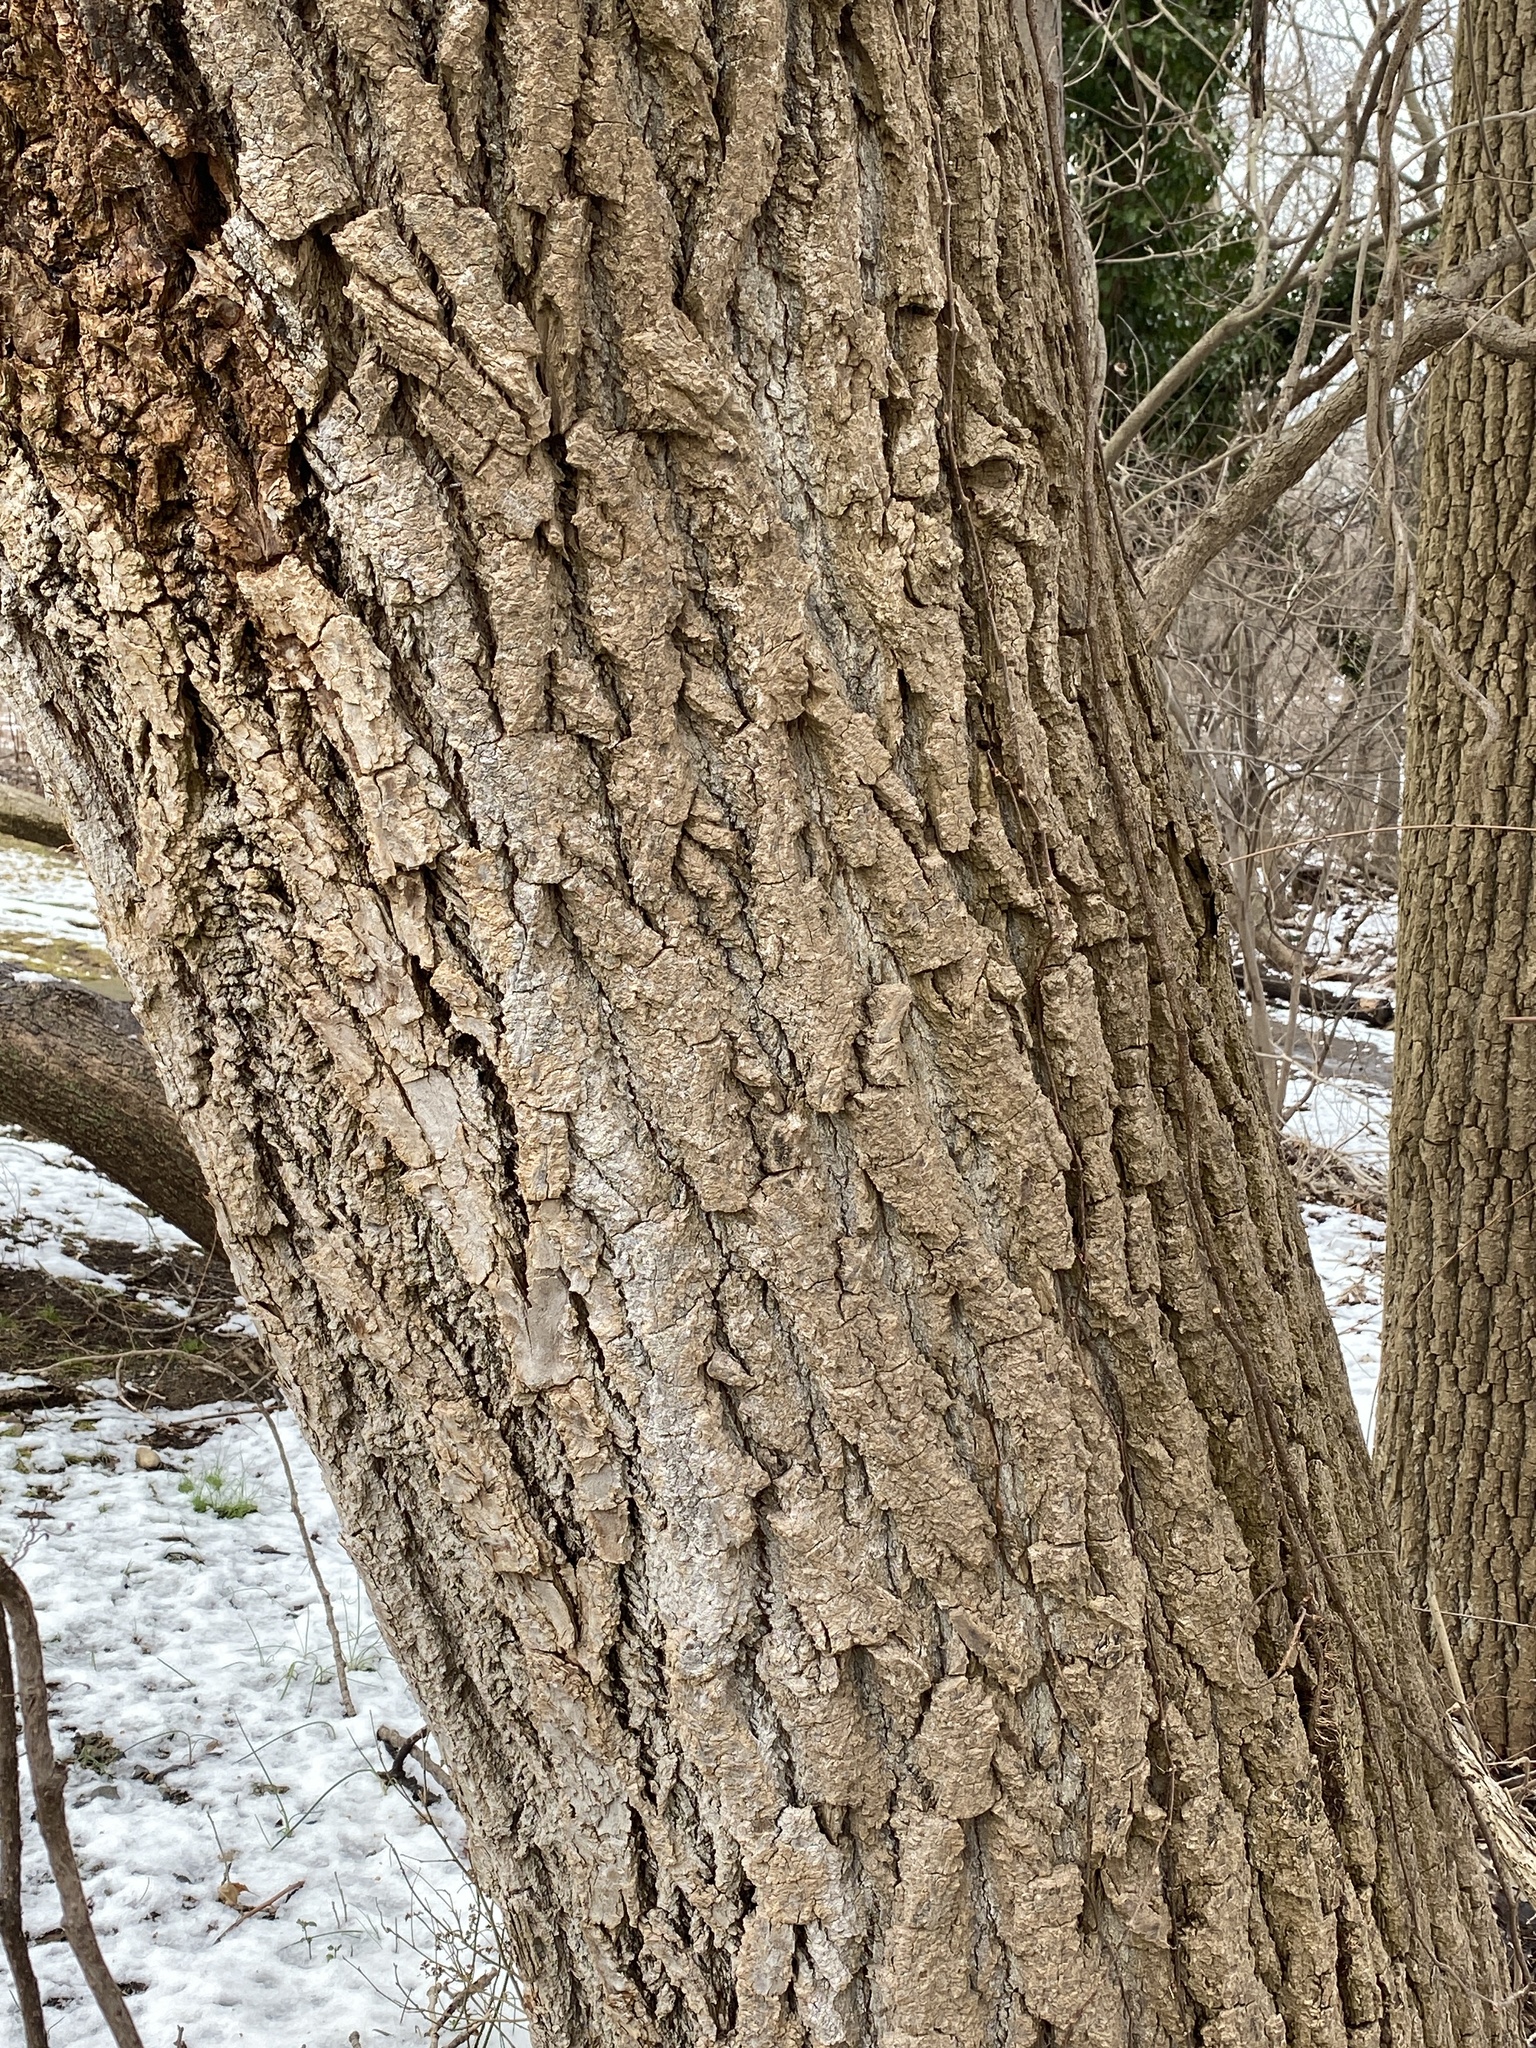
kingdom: Plantae
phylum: Tracheophyta
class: Magnoliopsida
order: Malpighiales
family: Salicaceae
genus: Populus
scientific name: Populus deltoides
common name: Eastern cottonwood
